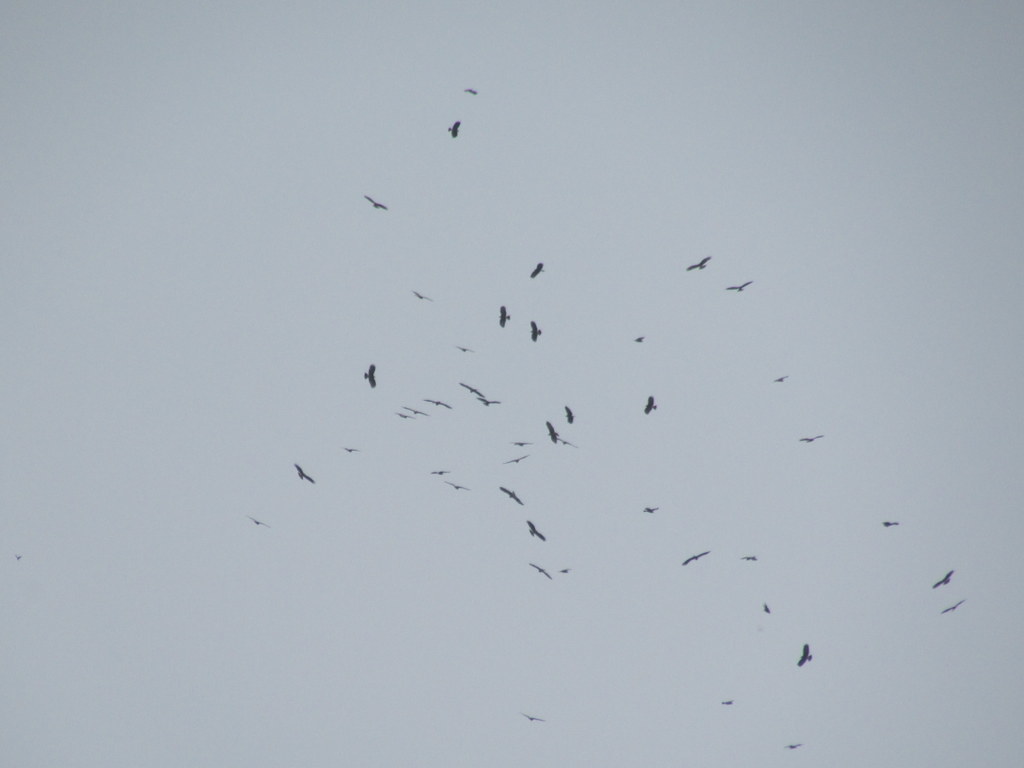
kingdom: Animalia
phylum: Chordata
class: Aves
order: Accipitriformes
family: Accipitridae
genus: Rostrhamus
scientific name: Rostrhamus sociabilis
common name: Snail kite
